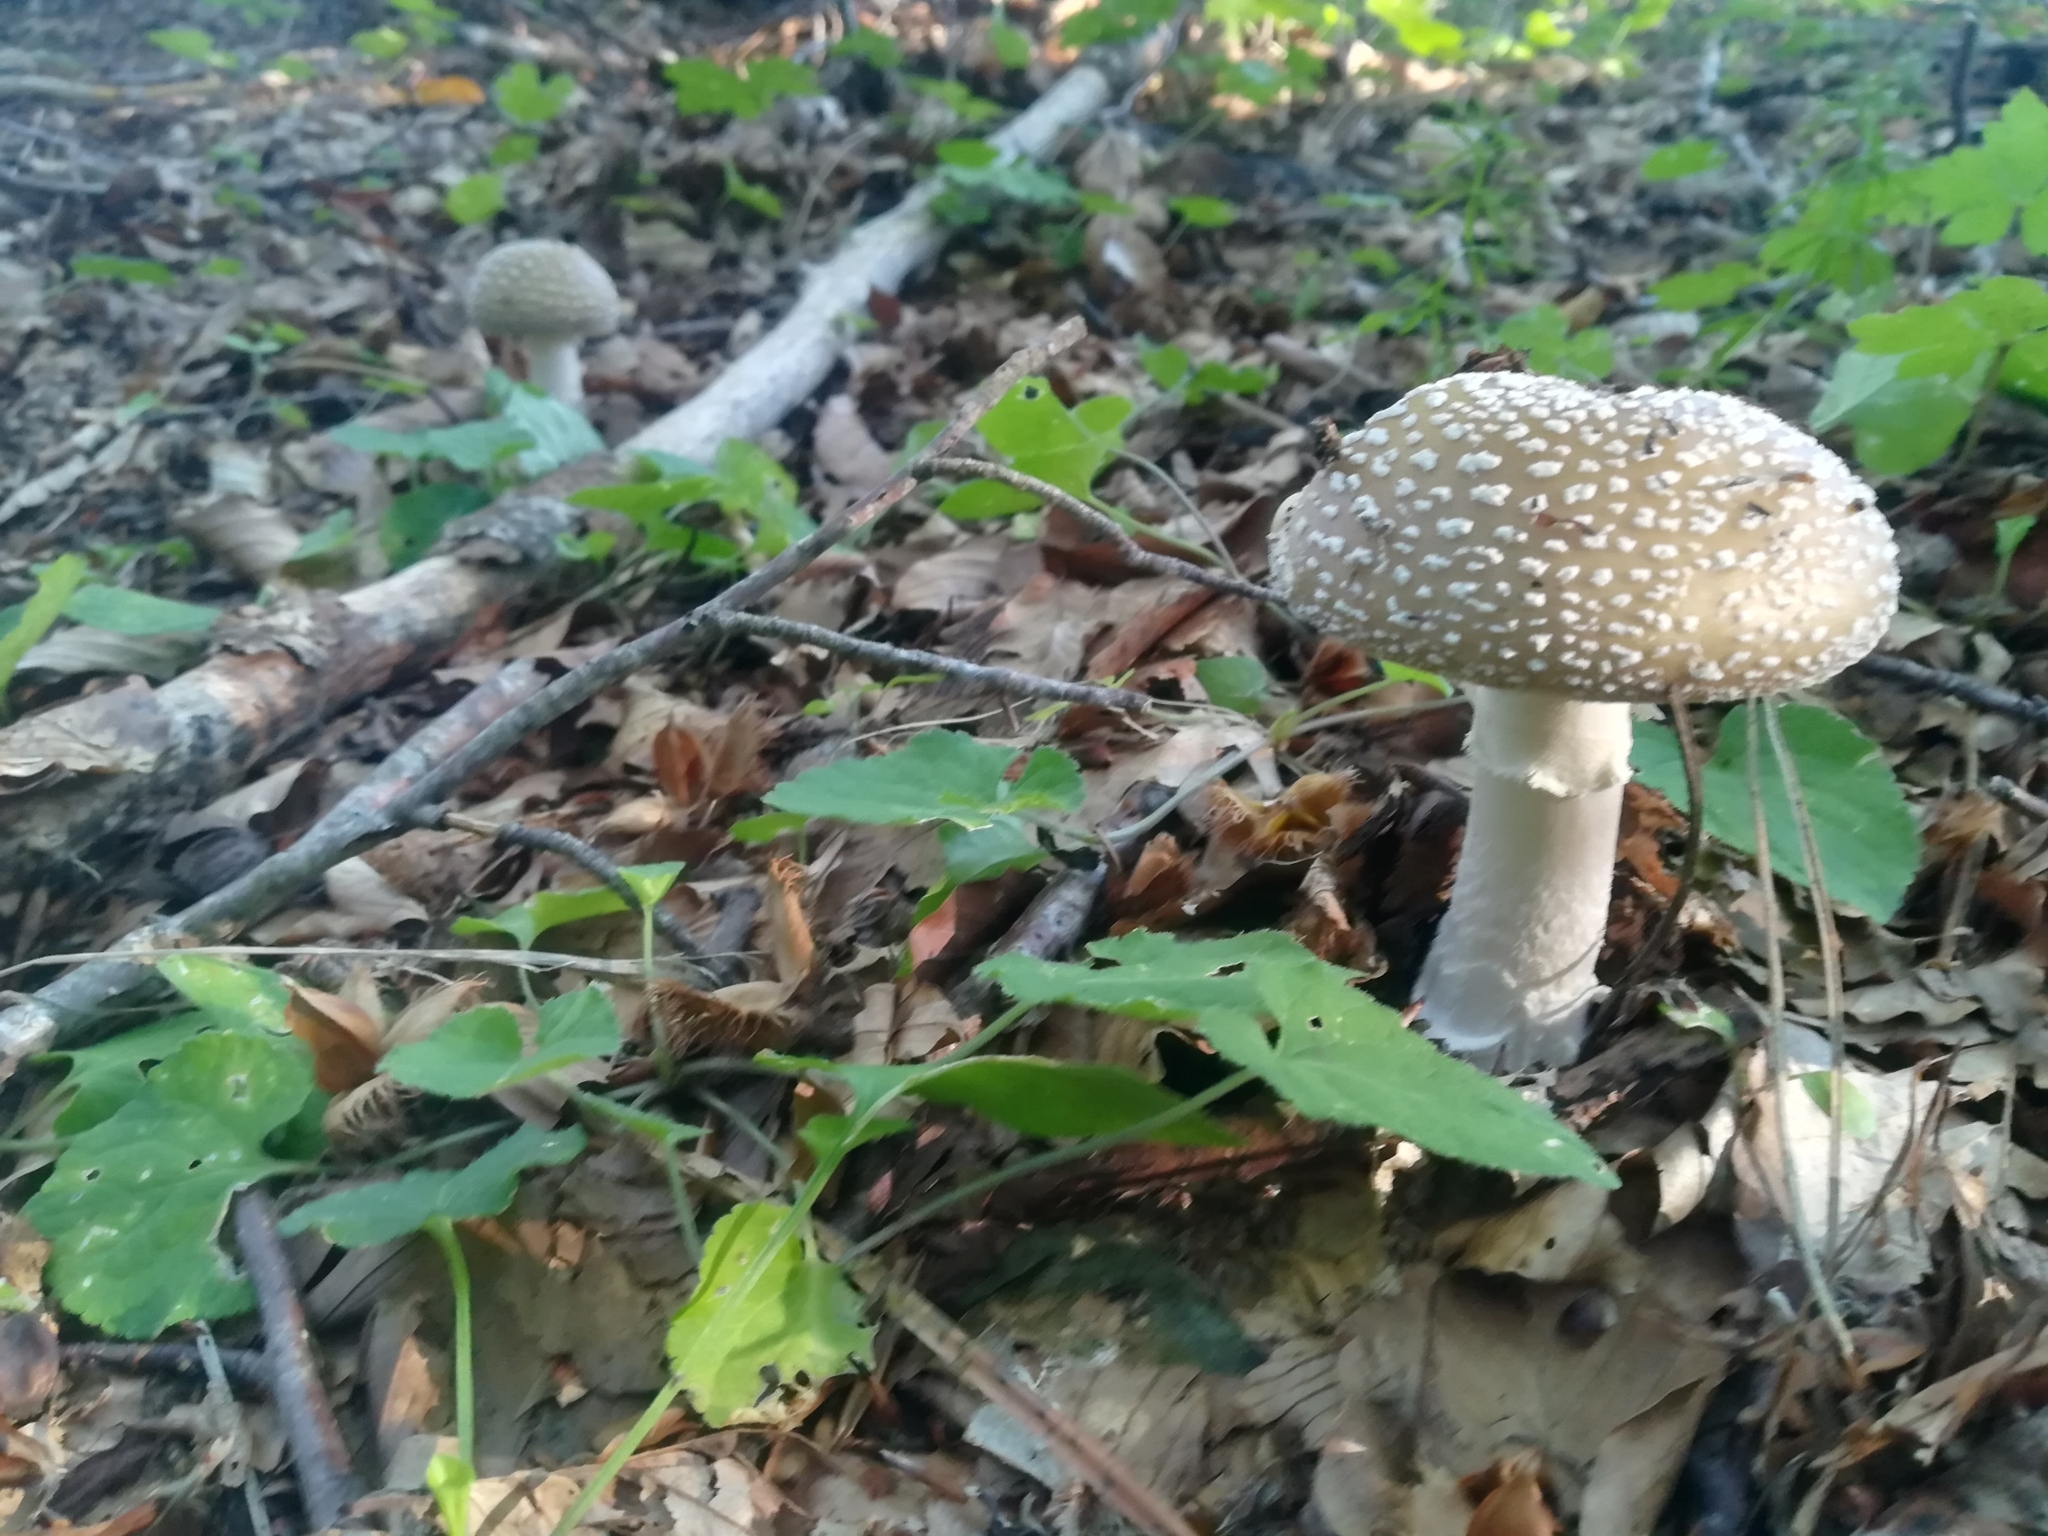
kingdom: Fungi
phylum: Basidiomycota
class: Agaricomycetes
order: Agaricales
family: Amanitaceae
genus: Amanita
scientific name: Amanita pantherina
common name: Panthercap
